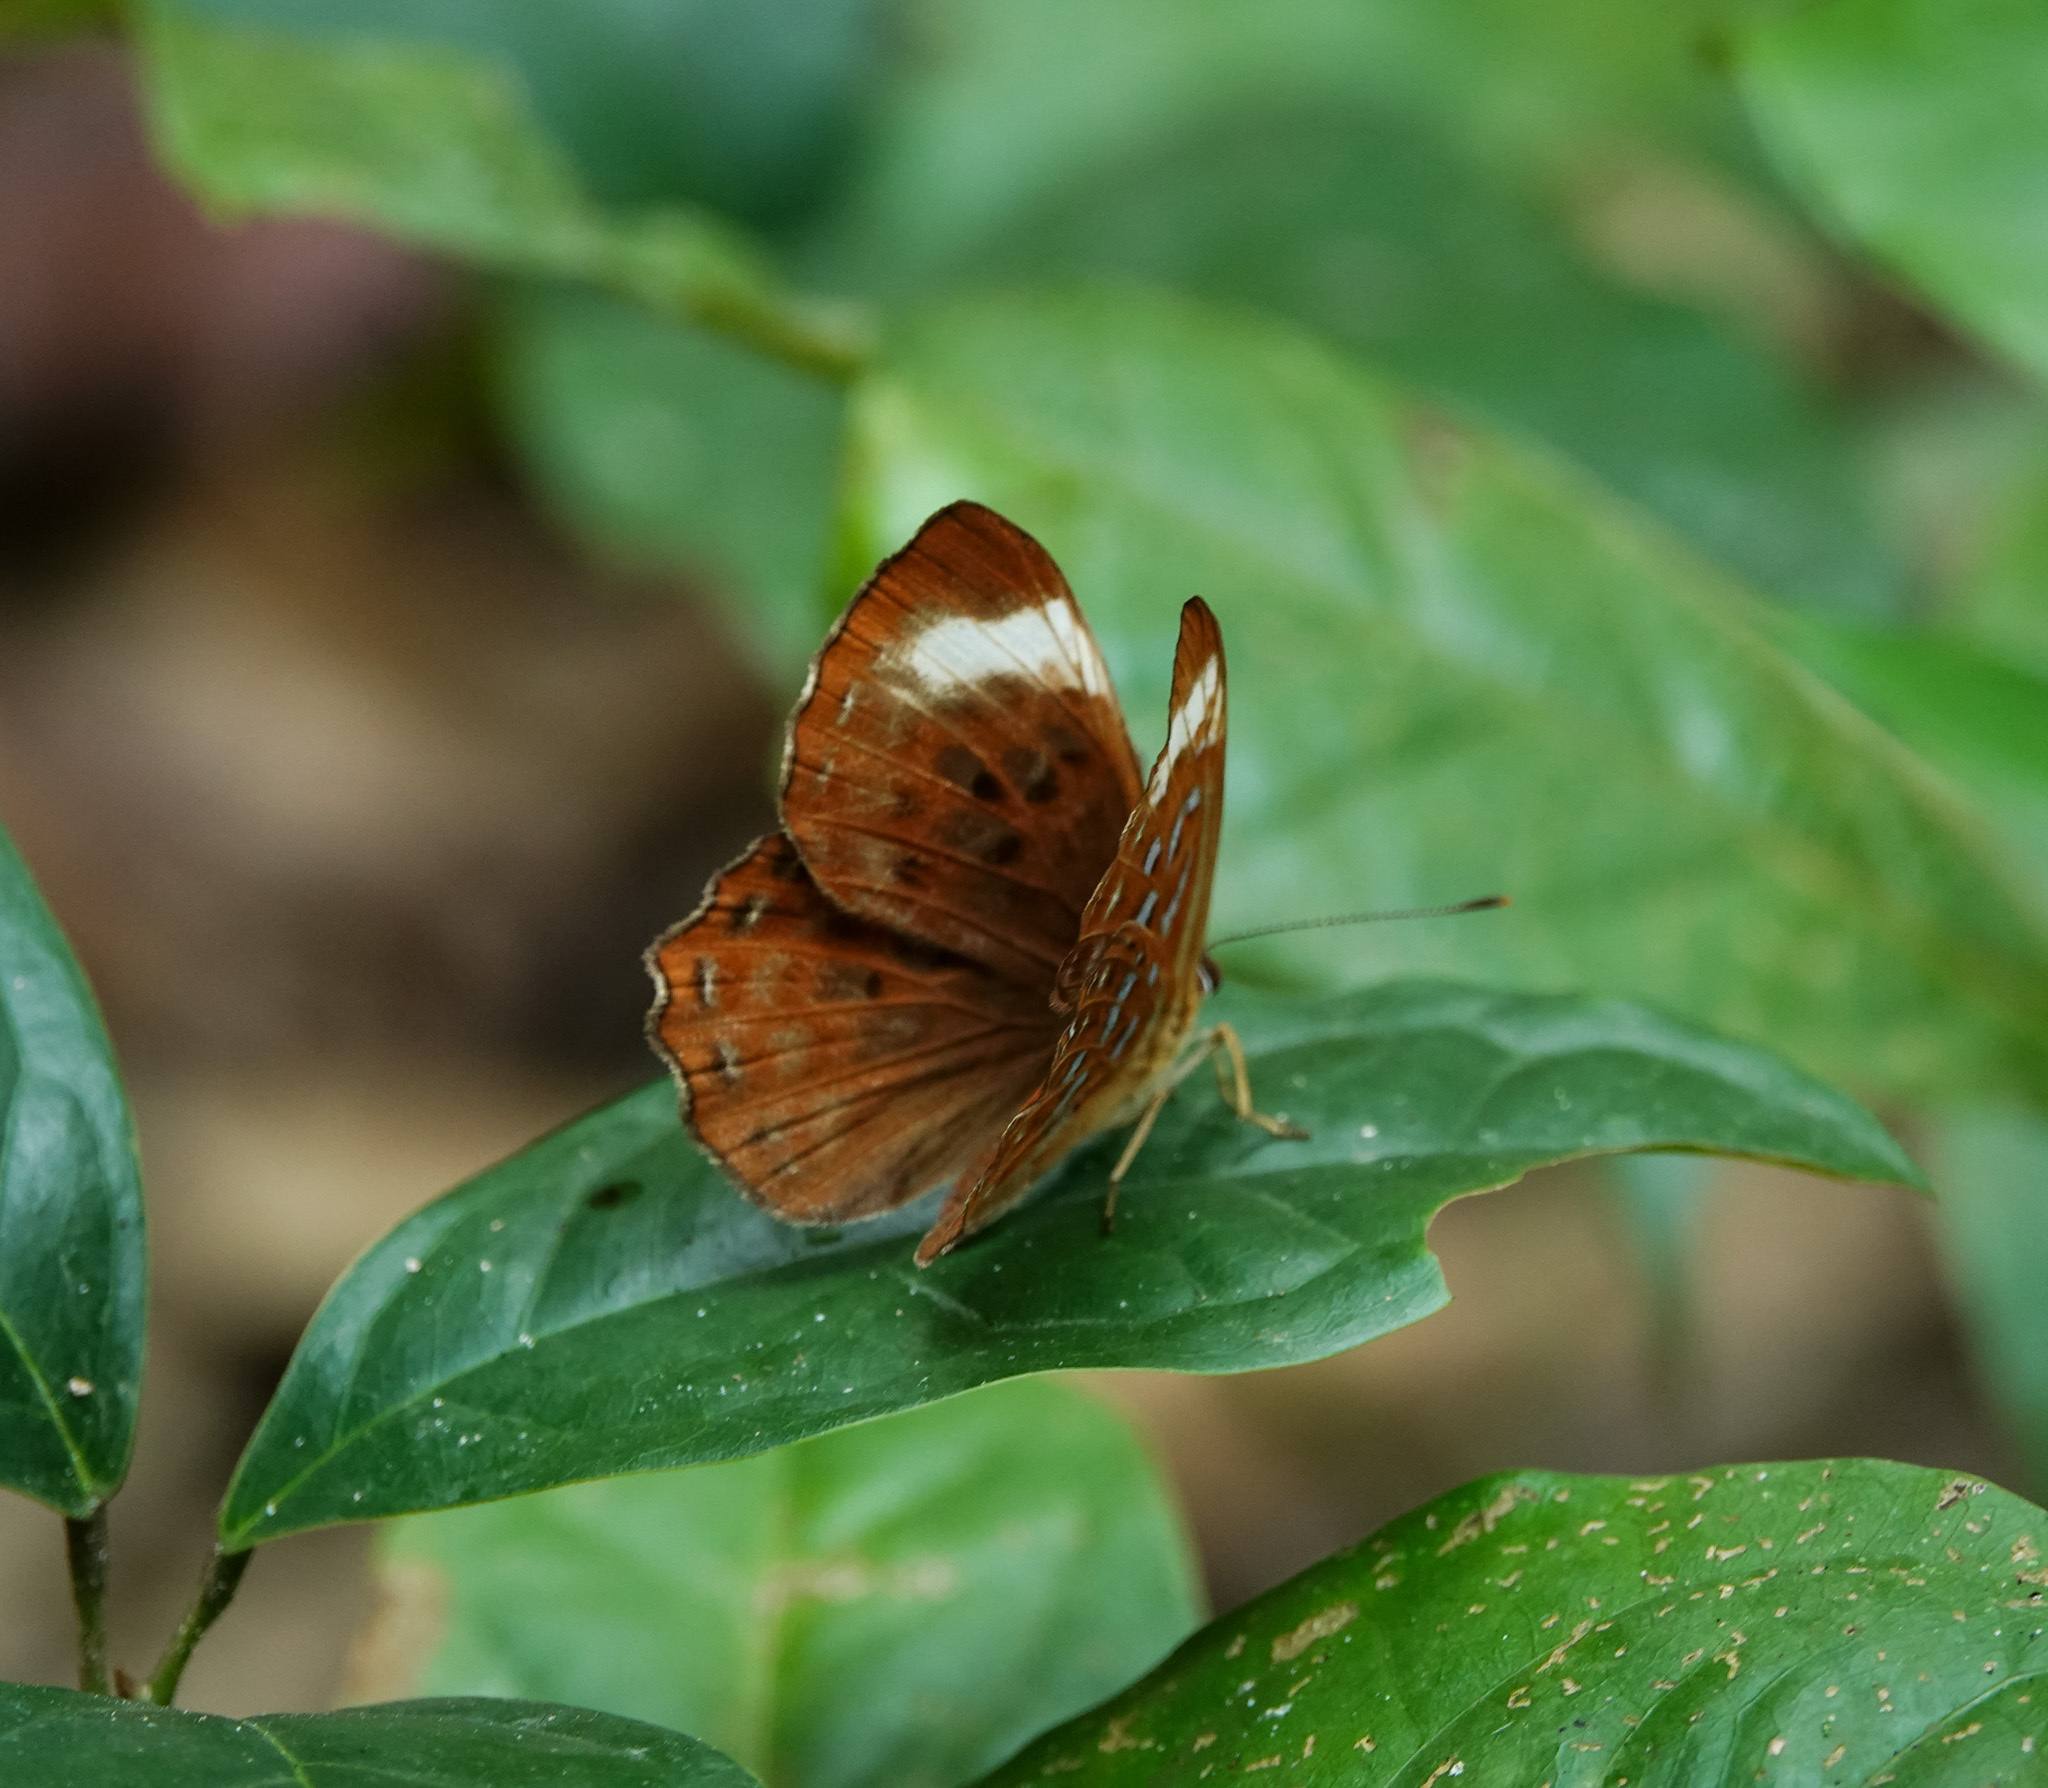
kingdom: Animalia
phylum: Arthropoda
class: Insecta
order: Lepidoptera
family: Erebidae
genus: Dysschema
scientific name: Dysschema
